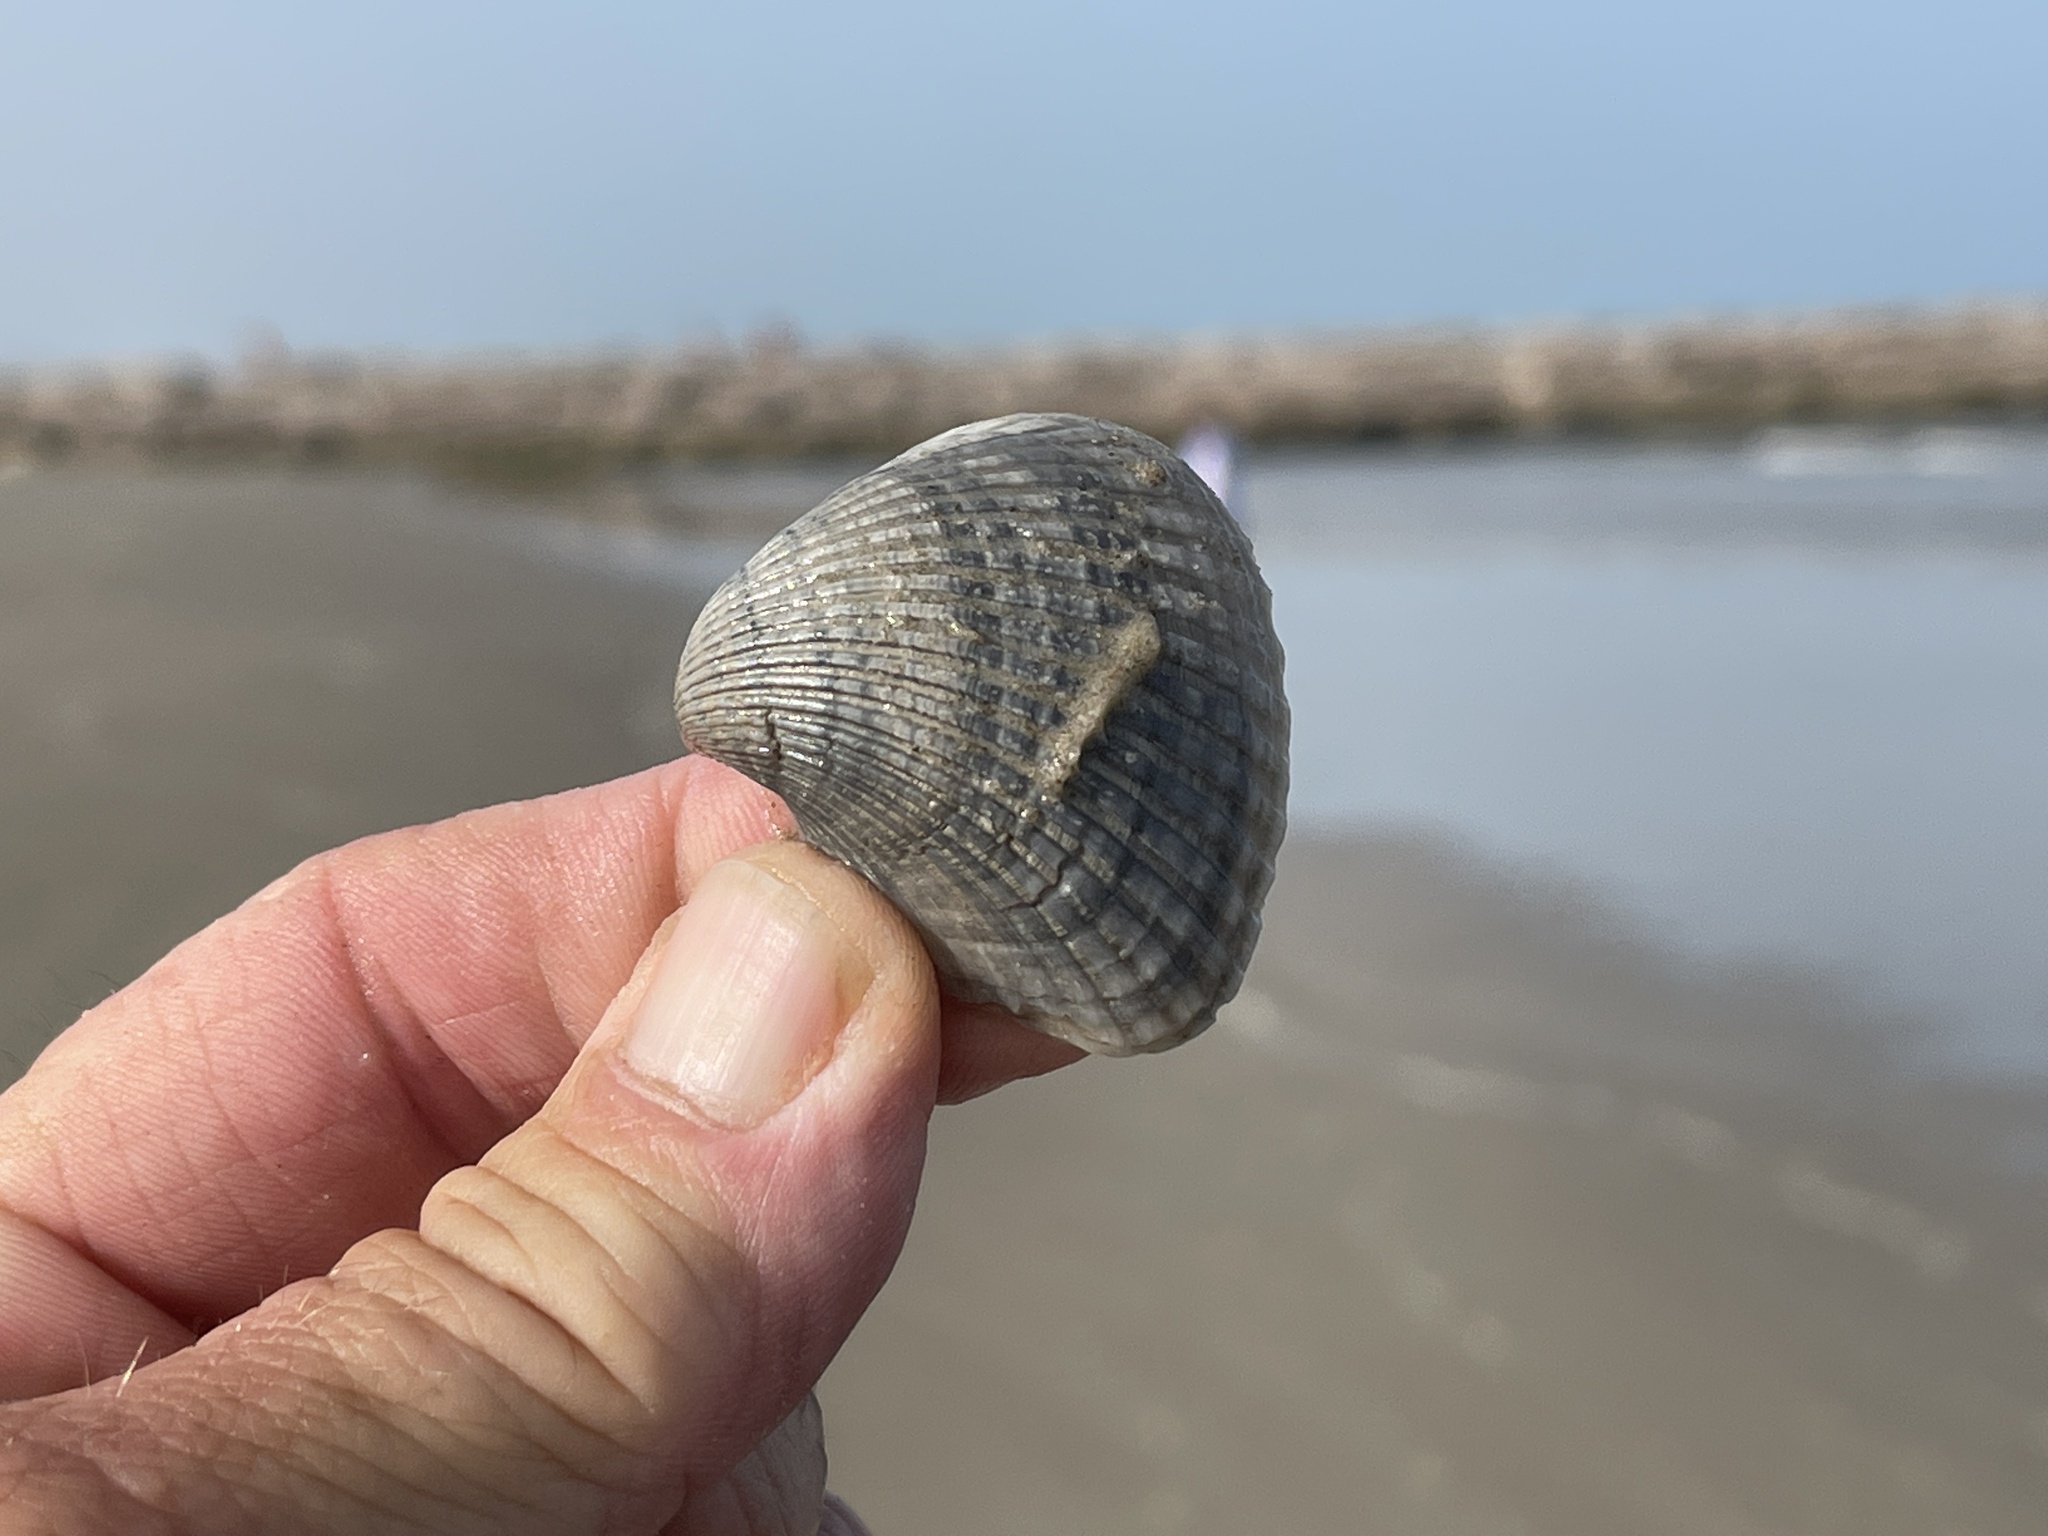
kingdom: Animalia
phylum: Mollusca
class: Bivalvia
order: Arcida
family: Noetiidae
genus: Noetia
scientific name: Noetia ponderosa
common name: Ponderous ark
